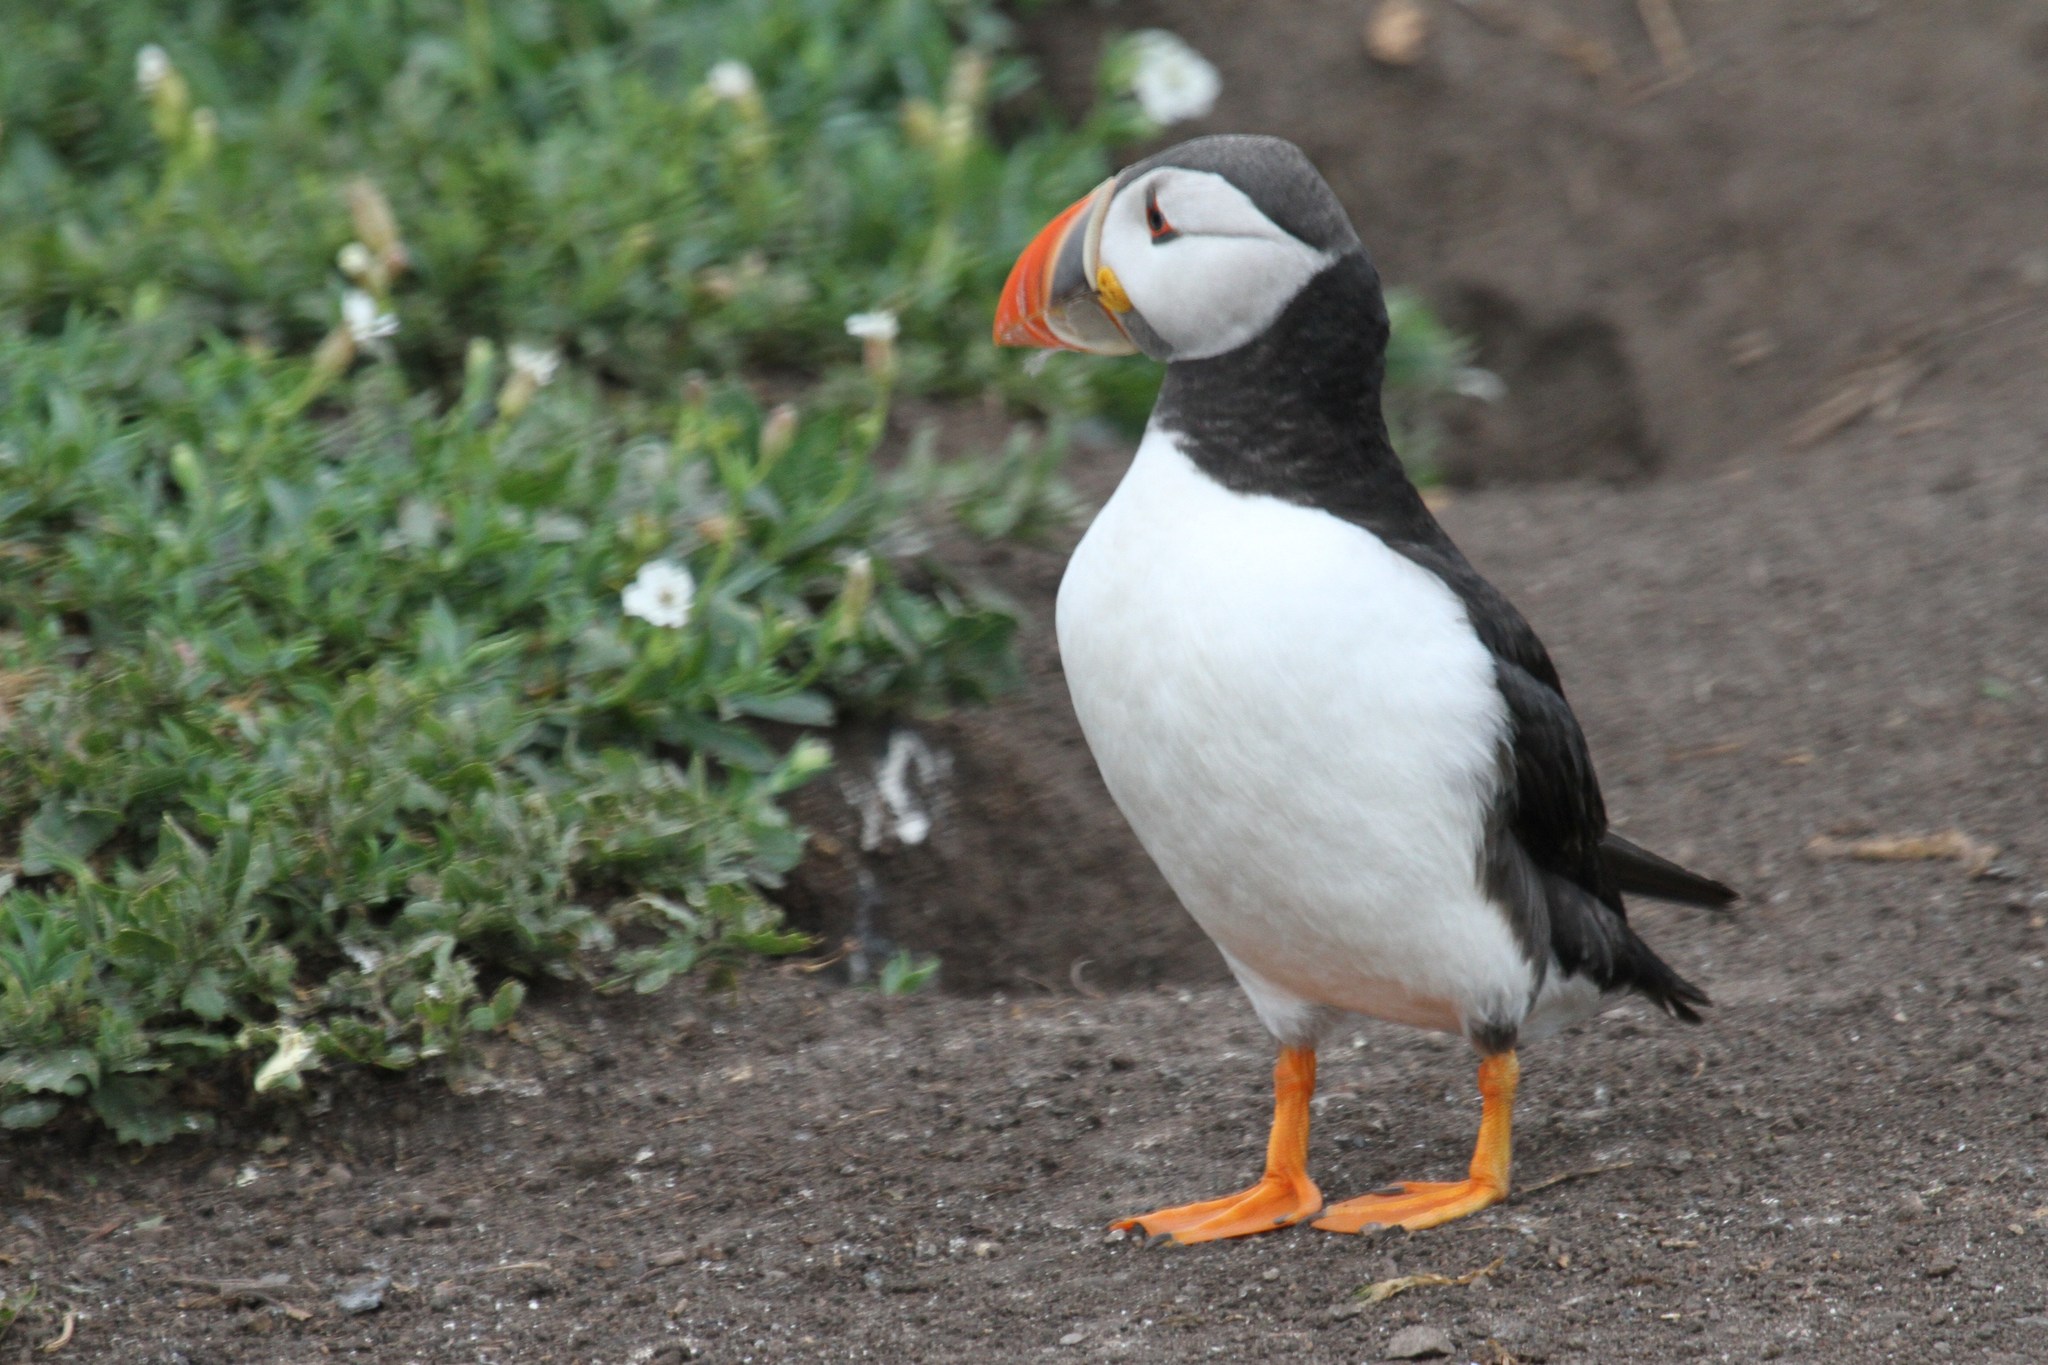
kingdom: Animalia
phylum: Chordata
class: Aves
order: Charadriiformes
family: Alcidae
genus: Fratercula
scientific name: Fratercula arctica
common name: Atlantic puffin
